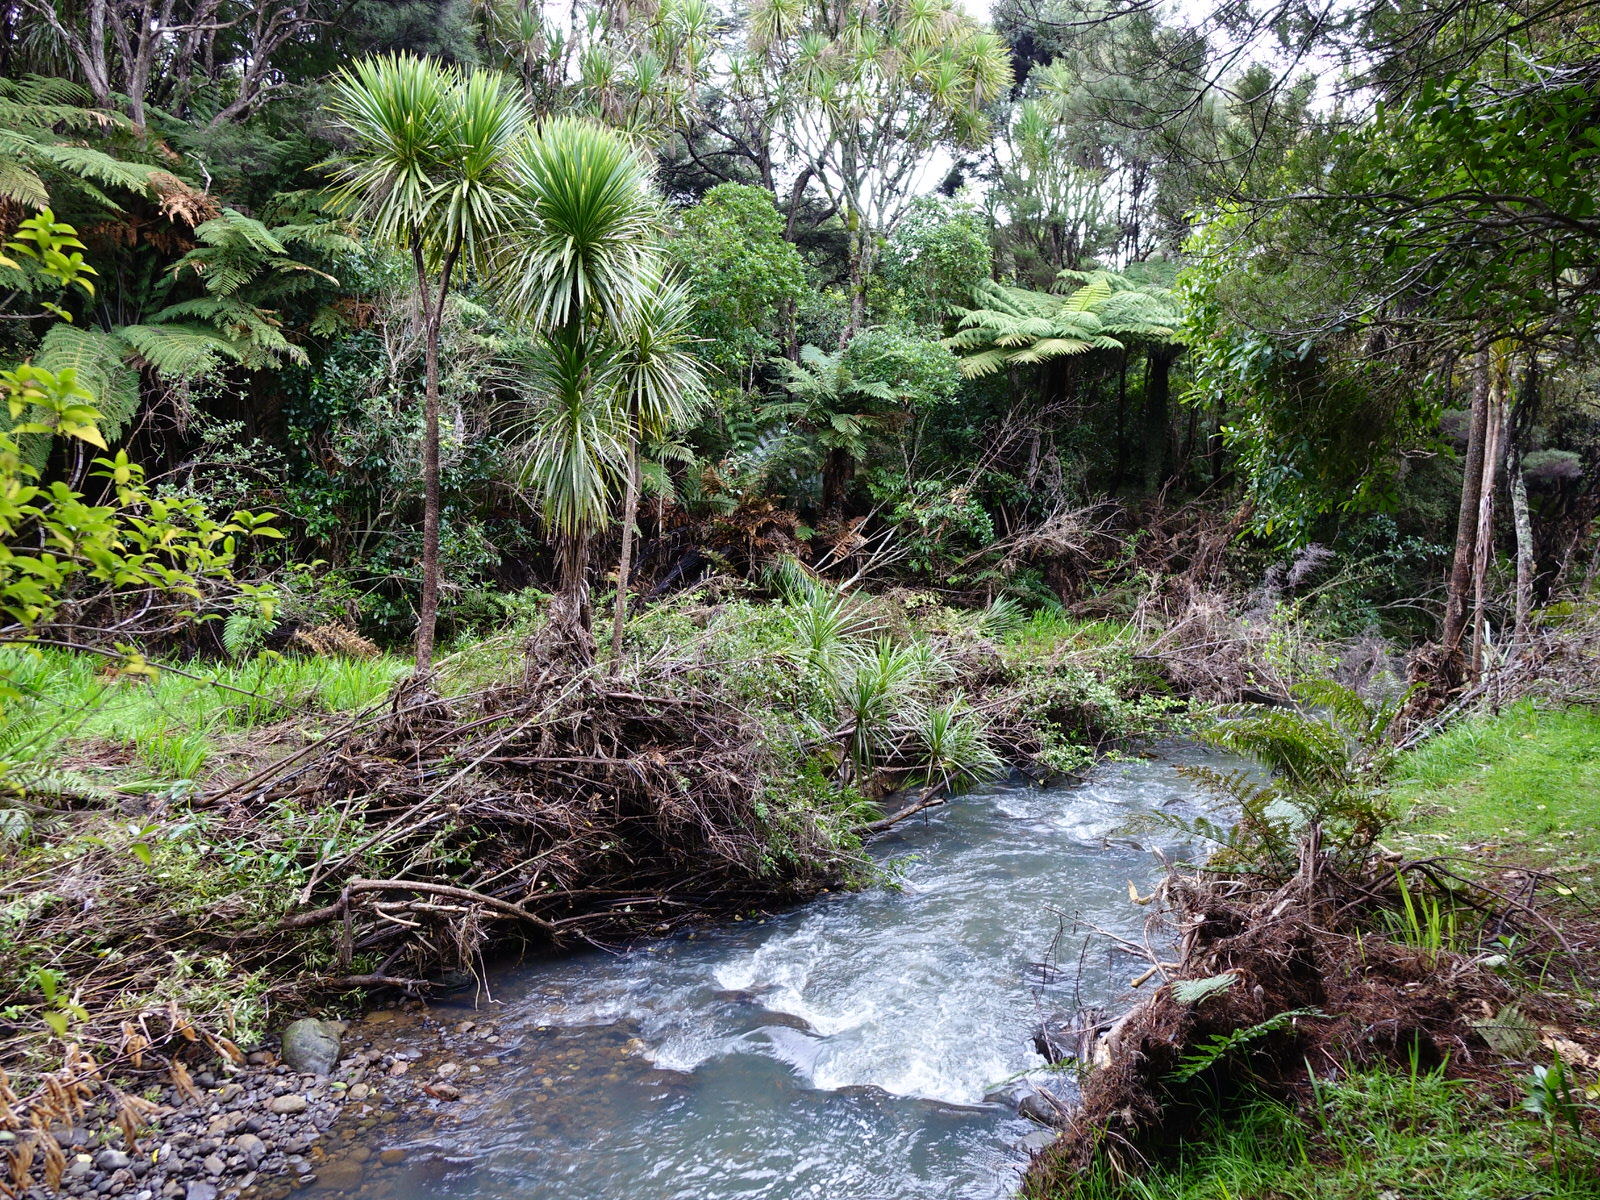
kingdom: Plantae
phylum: Tracheophyta
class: Liliopsida
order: Asparagales
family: Asparagaceae
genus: Cordyline
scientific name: Cordyline australis
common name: Cabbage-palm
